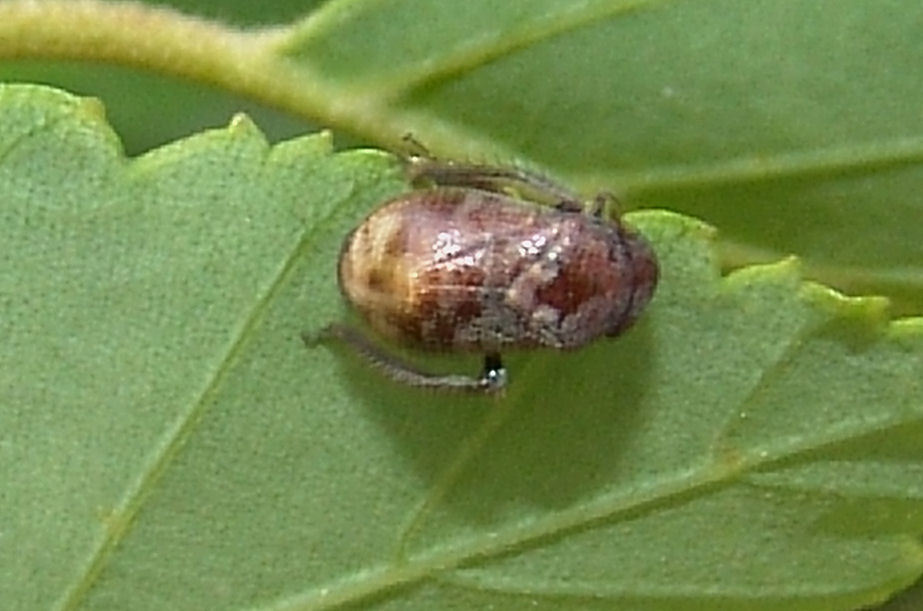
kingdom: Animalia
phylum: Arthropoda
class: Insecta
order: Hemiptera
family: Cicadellidae
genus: Penthimia
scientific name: Penthimia americana
